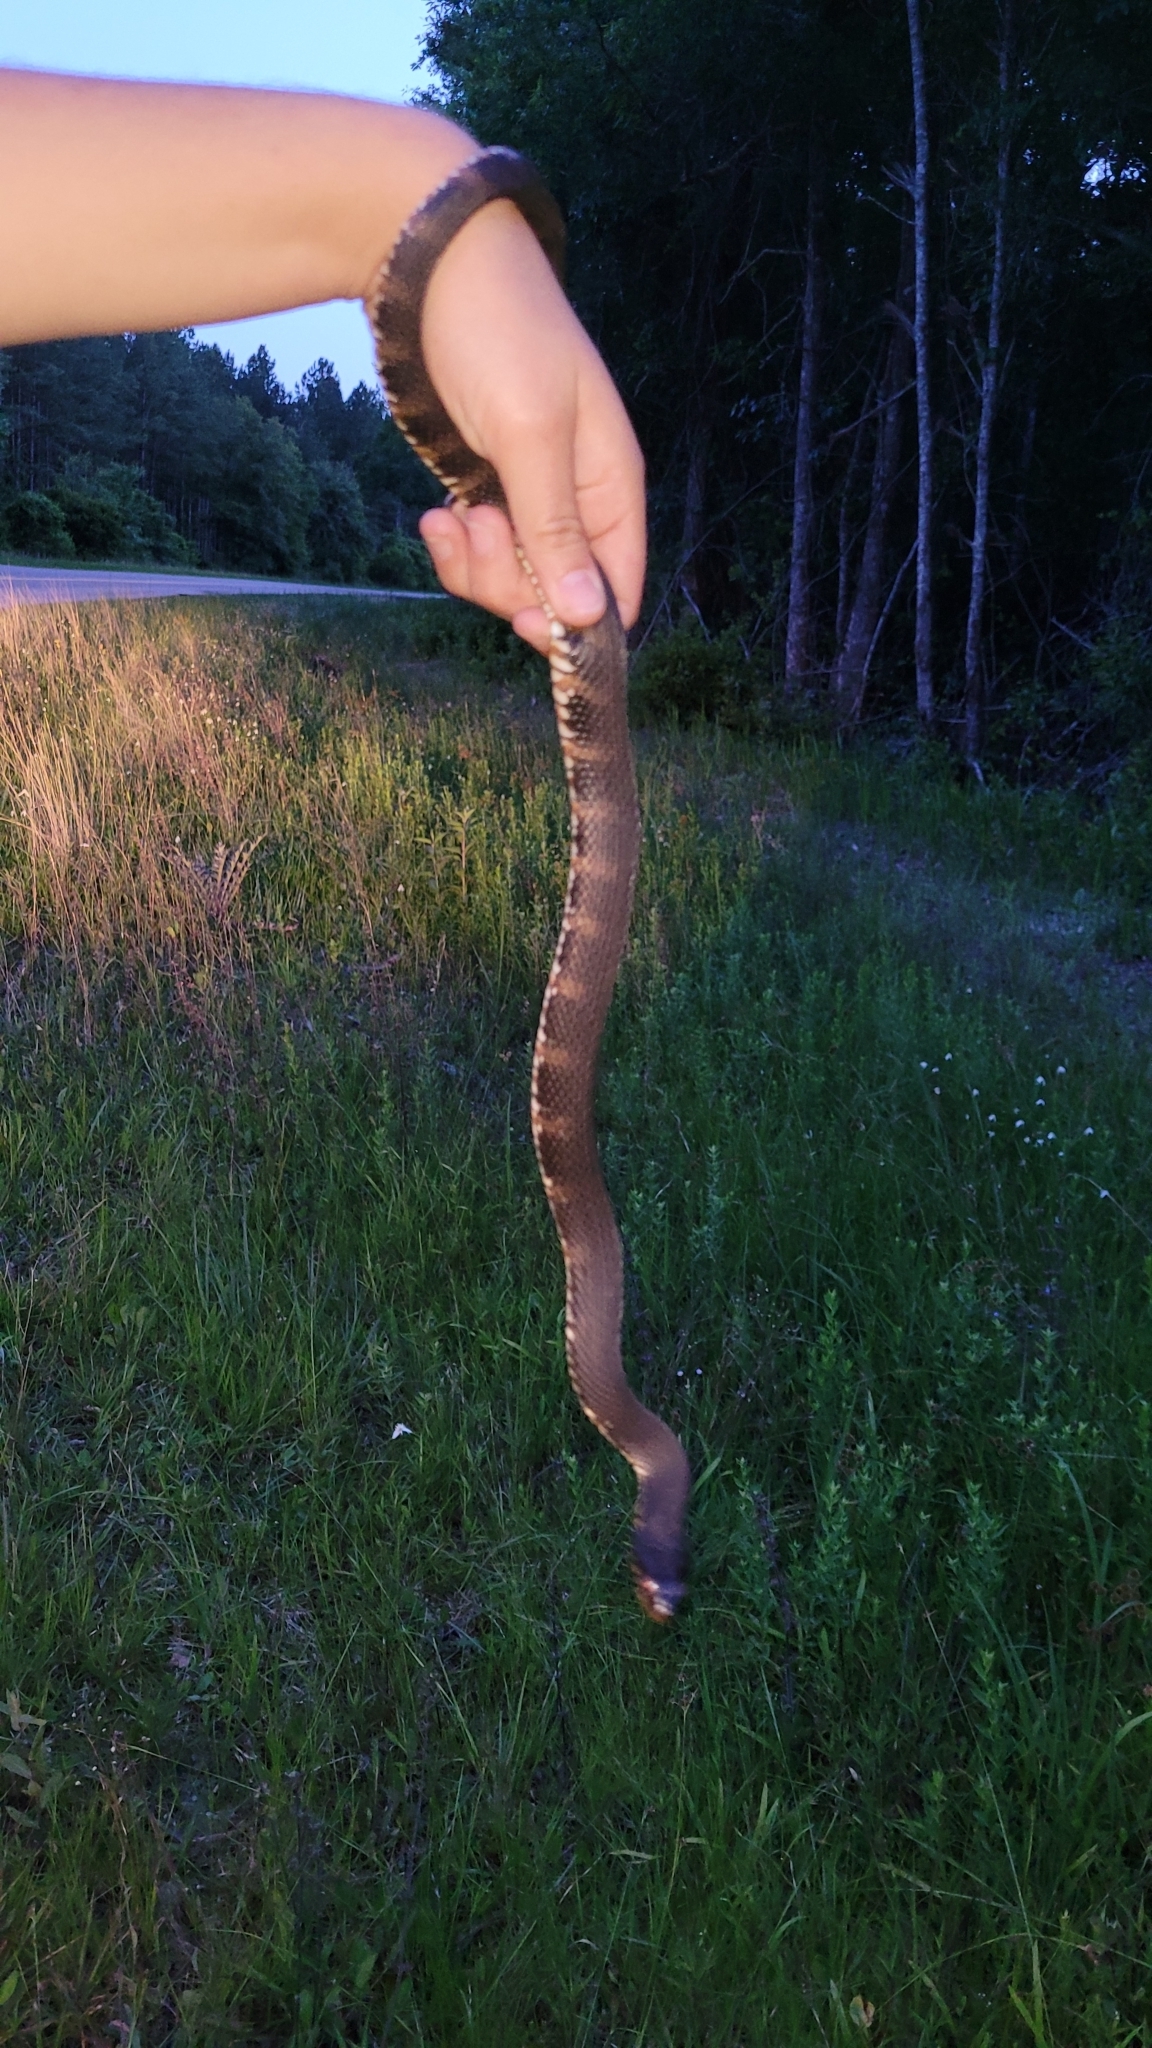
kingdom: Animalia
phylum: Chordata
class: Squamata
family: Colubridae
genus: Nerodia
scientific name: Nerodia fasciata
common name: Southern water snake
